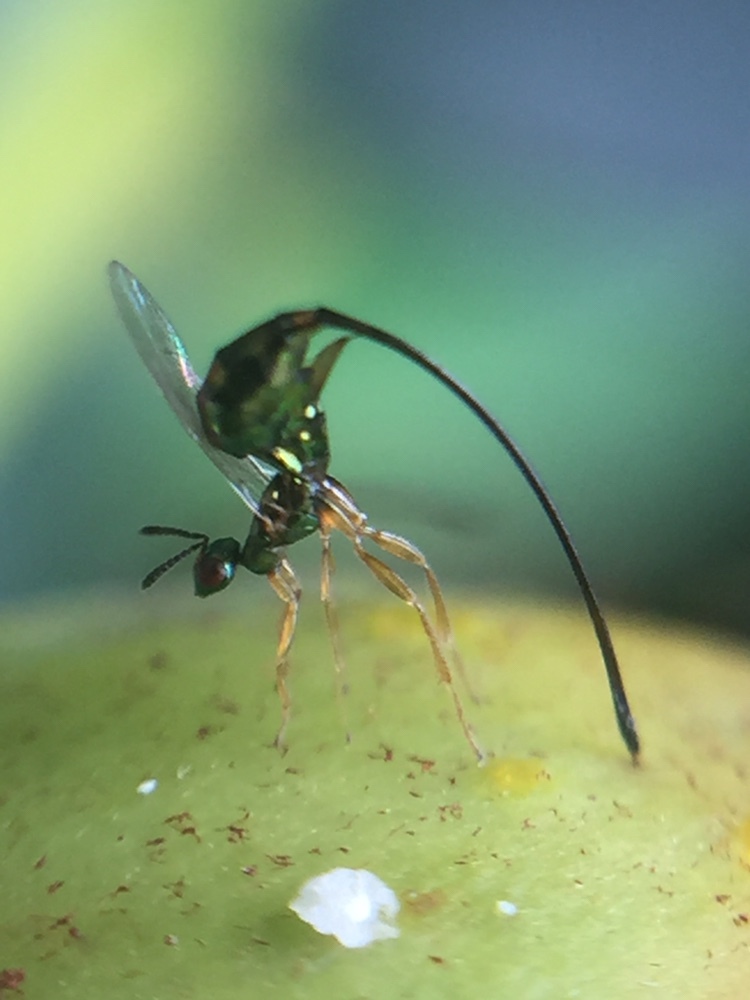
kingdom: Animalia
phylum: Arthropoda
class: Insecta
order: Hymenoptera
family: Agaonidae
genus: Sycoscapter
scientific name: Sycoscapter australis
